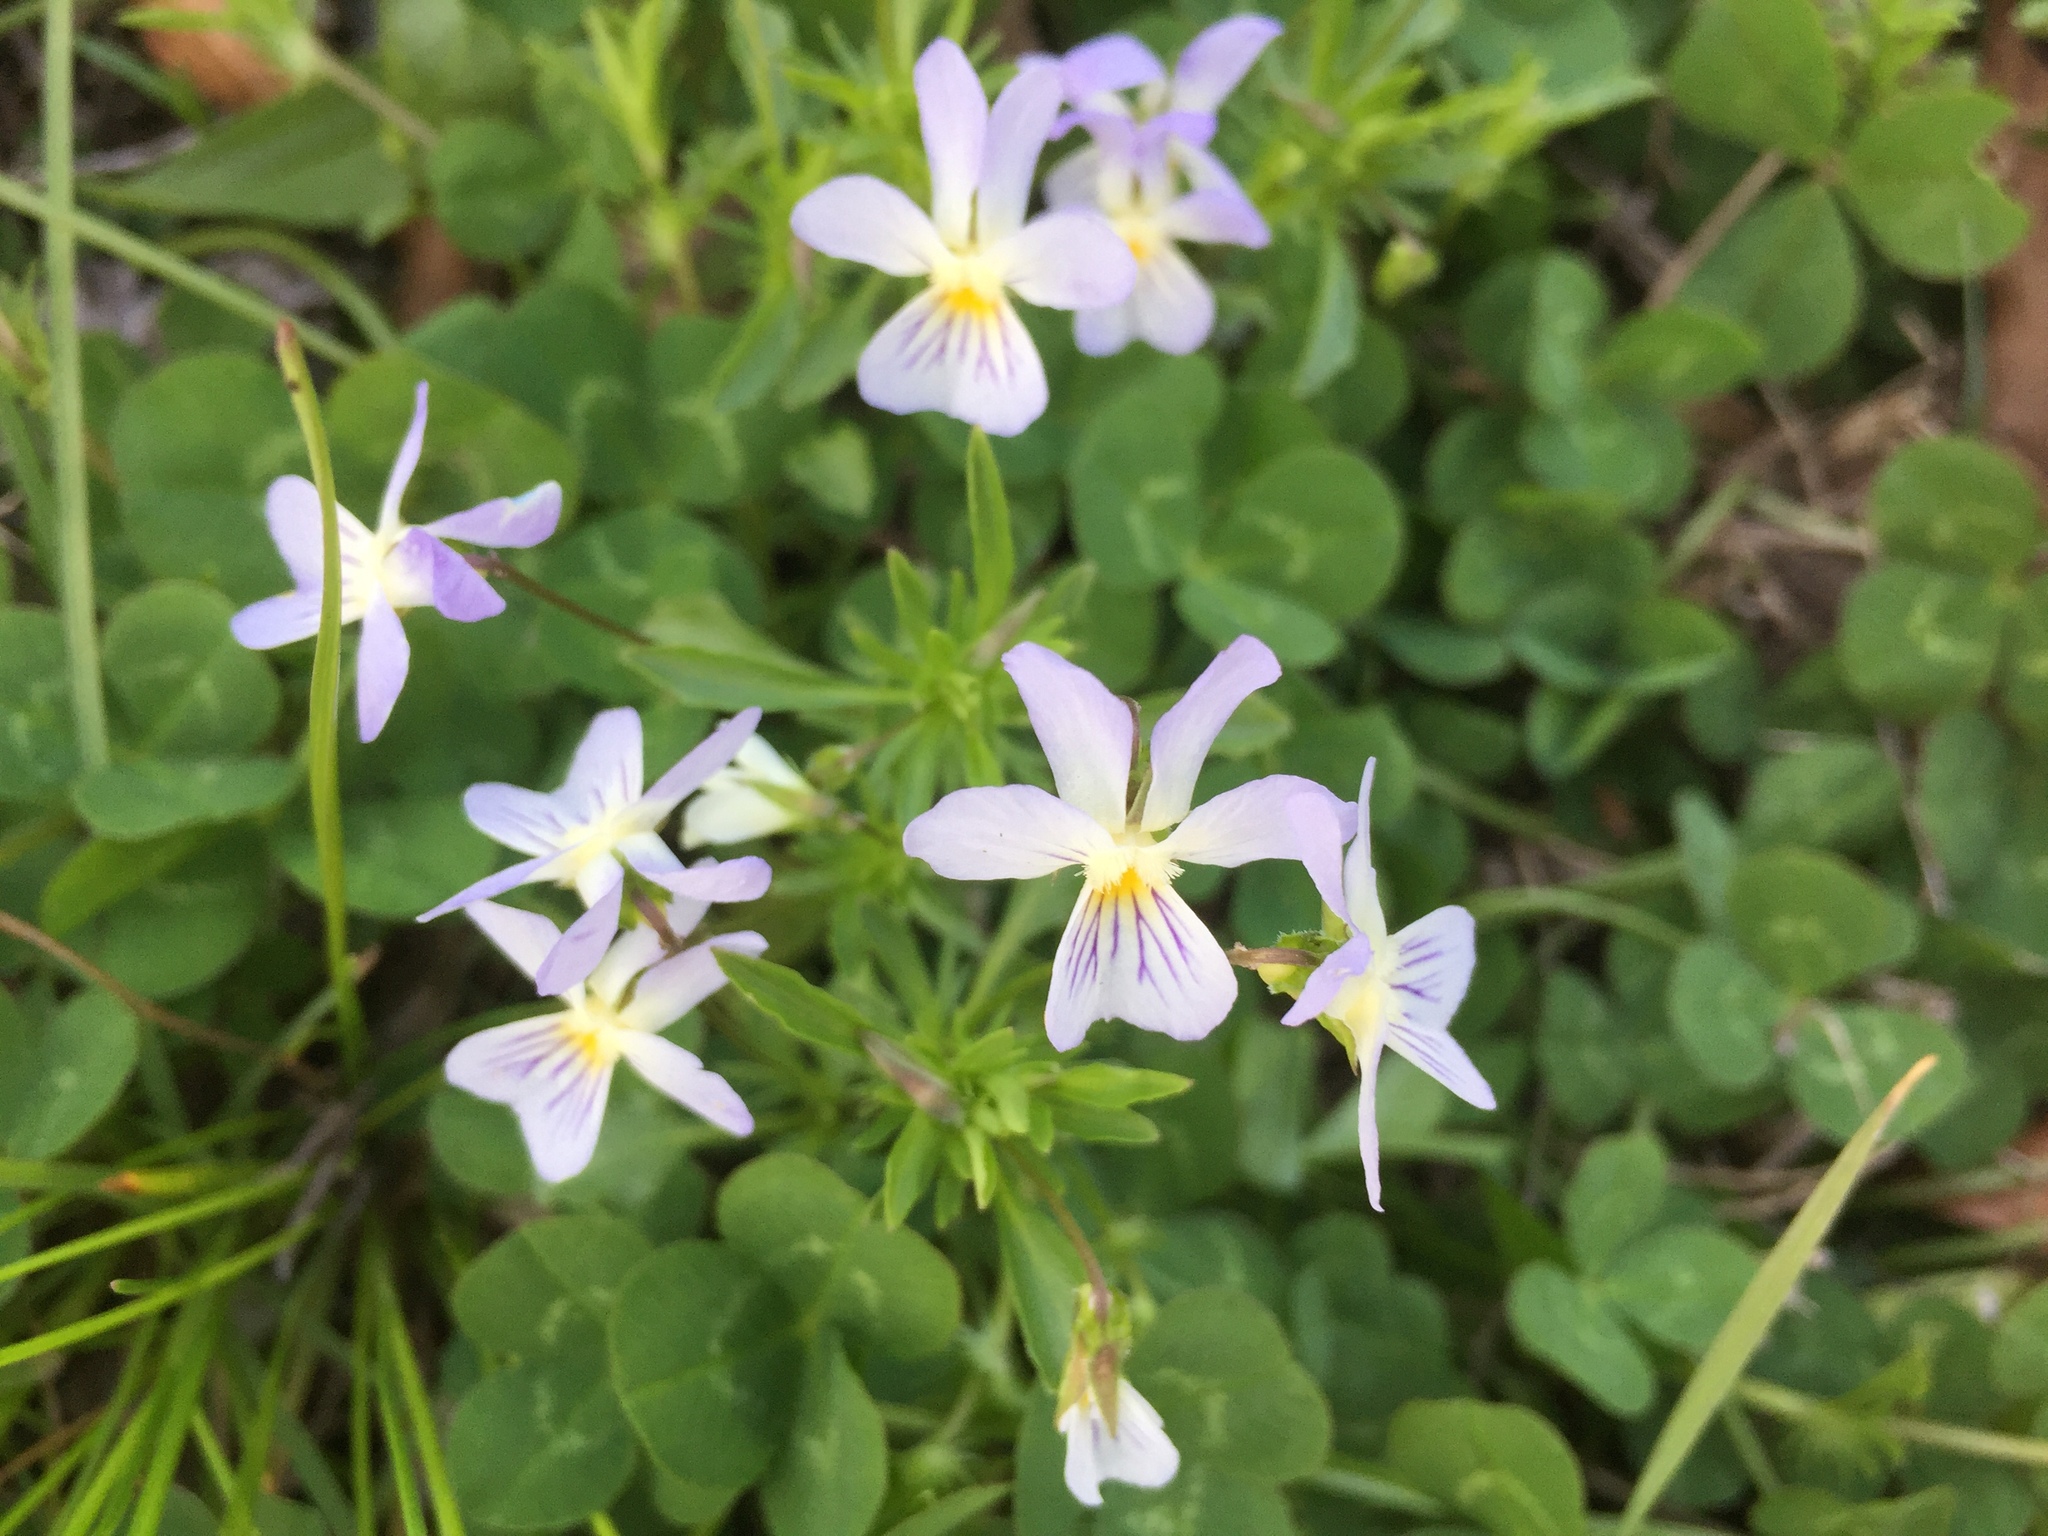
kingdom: Plantae
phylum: Tracheophyta
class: Magnoliopsida
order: Malpighiales
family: Violaceae
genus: Viola
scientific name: Viola rafinesquei
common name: American field pansy
